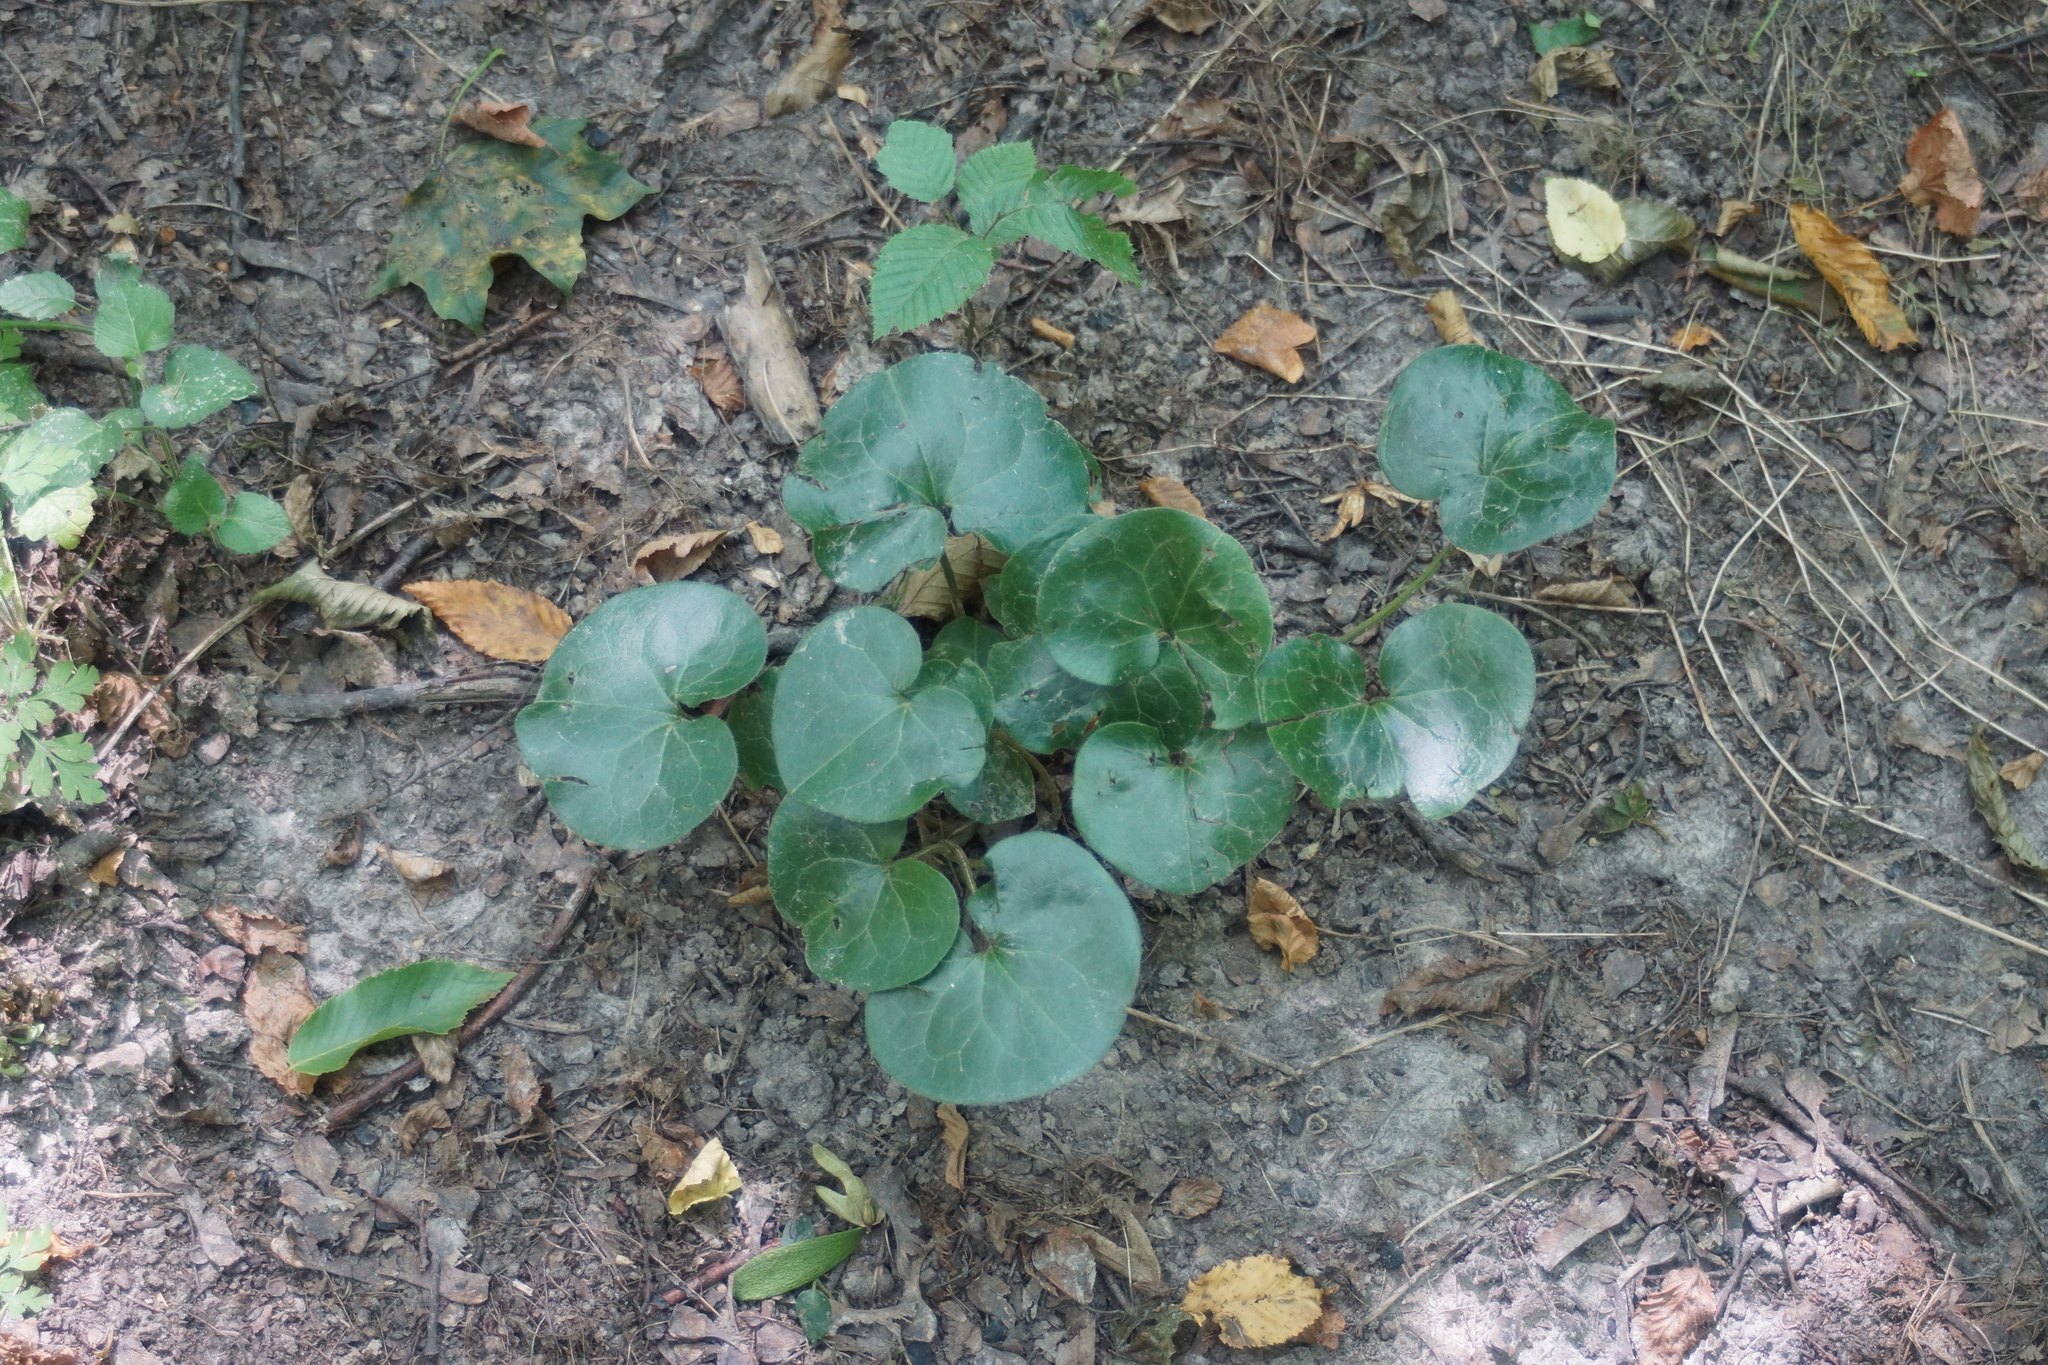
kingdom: Plantae
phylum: Tracheophyta
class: Magnoliopsida
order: Piperales
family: Aristolochiaceae
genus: Asarum
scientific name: Asarum europaeum
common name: Asarabacca
